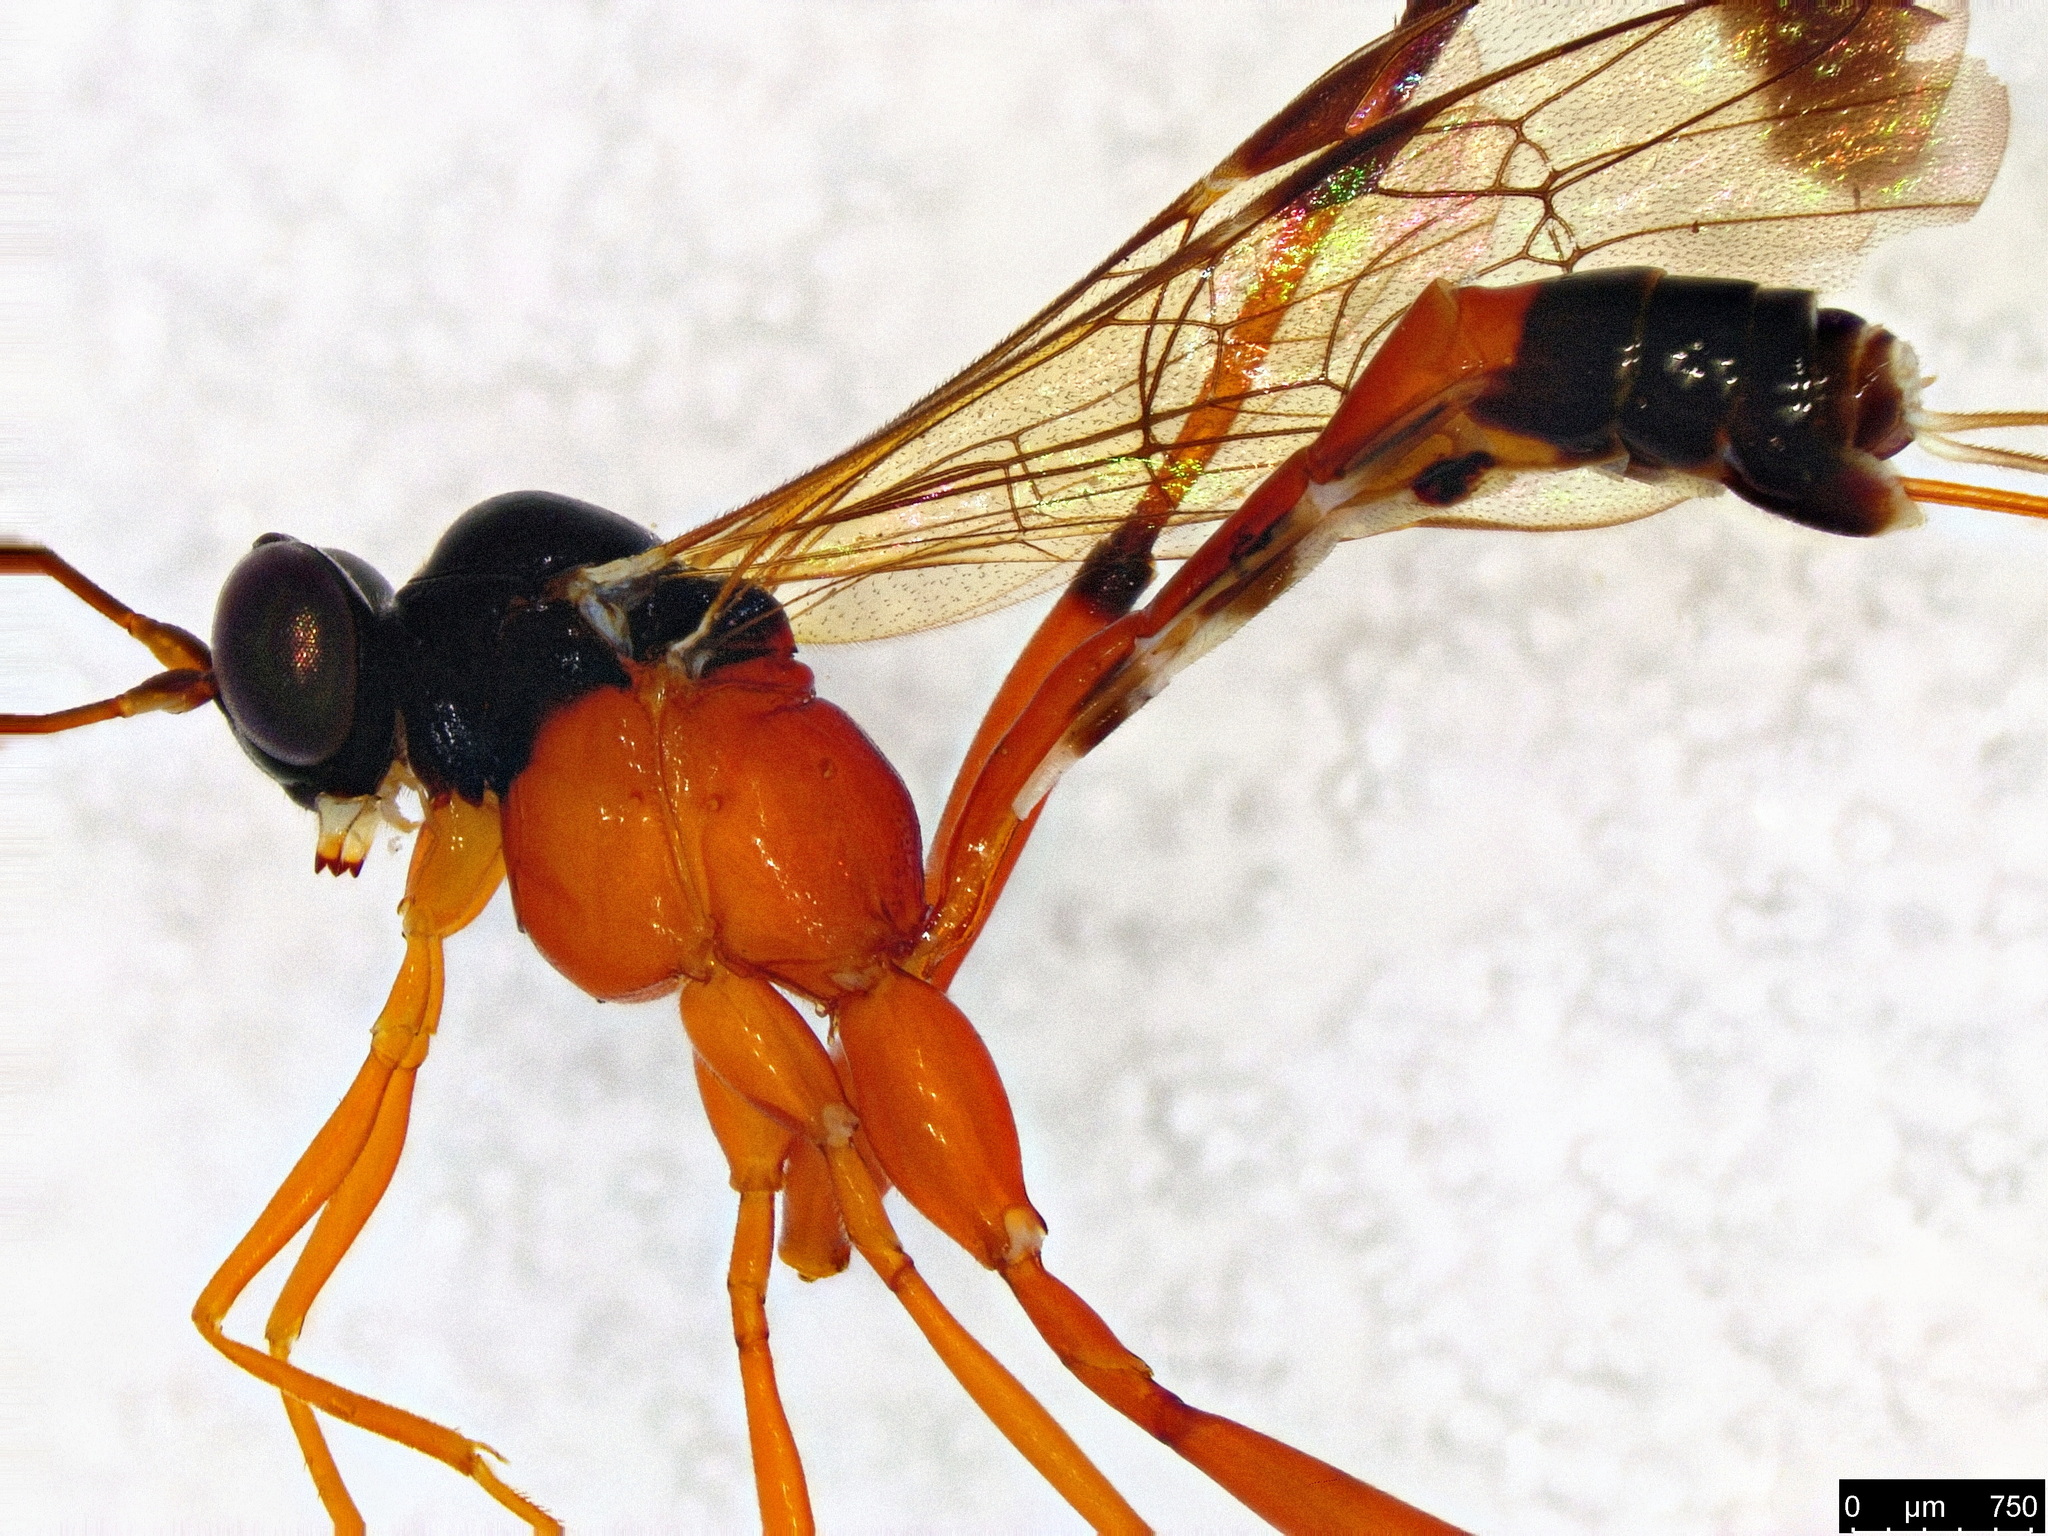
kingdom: Animalia
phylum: Arthropoda
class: Insecta
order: Hymenoptera
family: Ichneumonidae
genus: Leptobatopsis
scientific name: Leptobatopsis mesominiata
